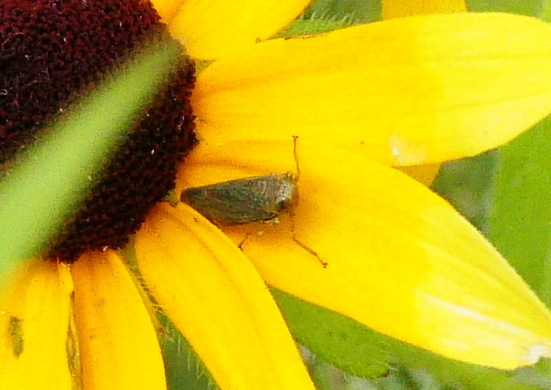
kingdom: Animalia
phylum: Arthropoda
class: Insecta
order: Hemiptera
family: Cicadellidae
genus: Jikradia
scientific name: Jikradia olitoria
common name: Coppery leafhopper
